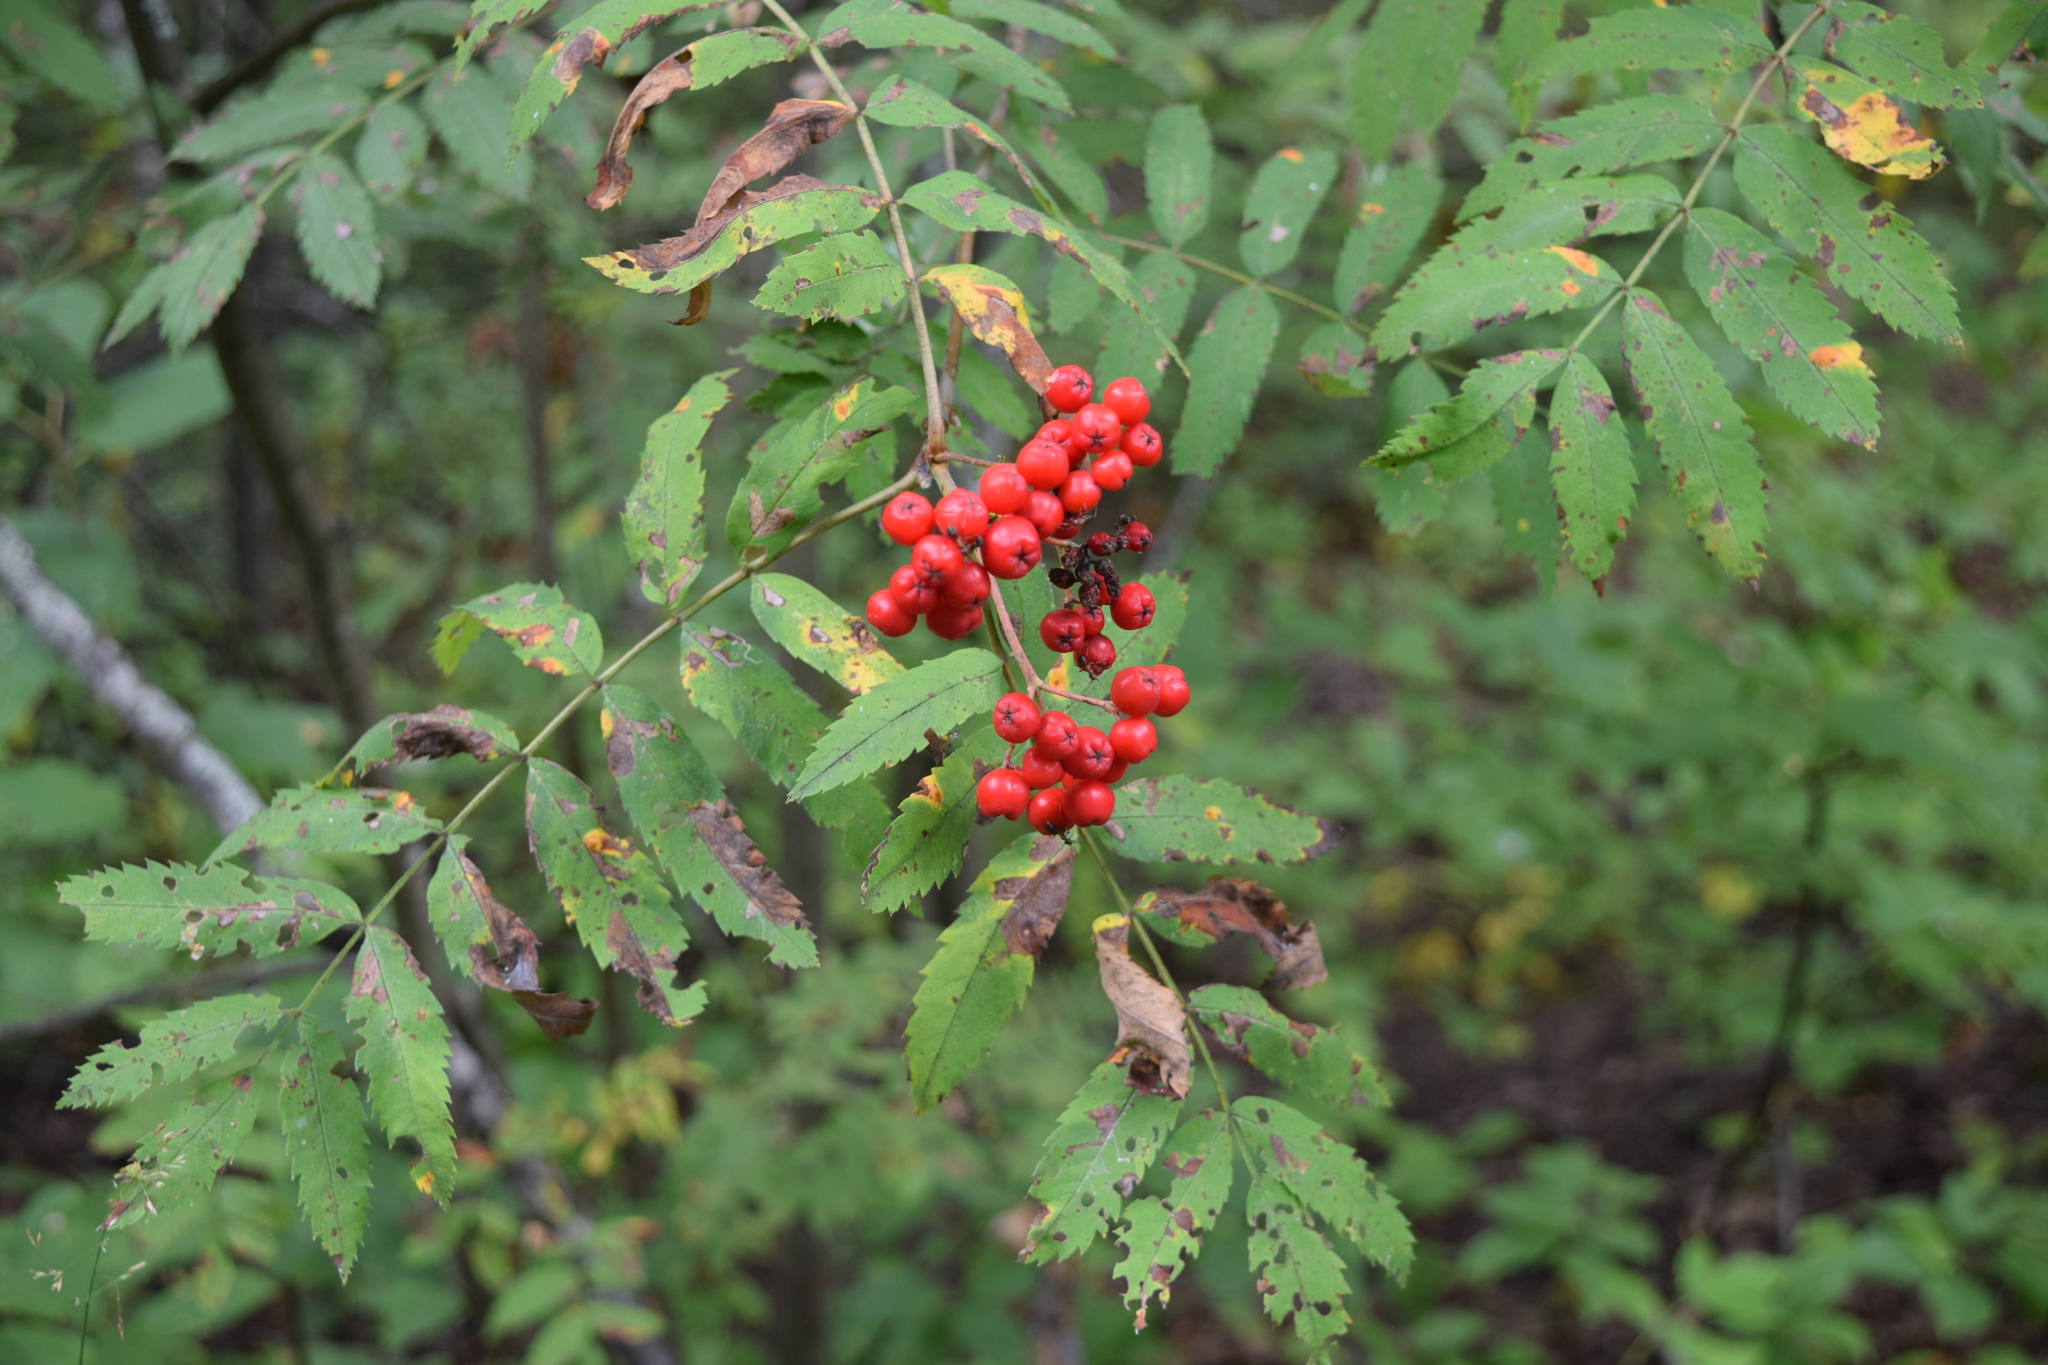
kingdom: Plantae
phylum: Tracheophyta
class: Magnoliopsida
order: Rosales
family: Rosaceae
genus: Sorbus
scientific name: Sorbus aucuparia
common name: Rowan
